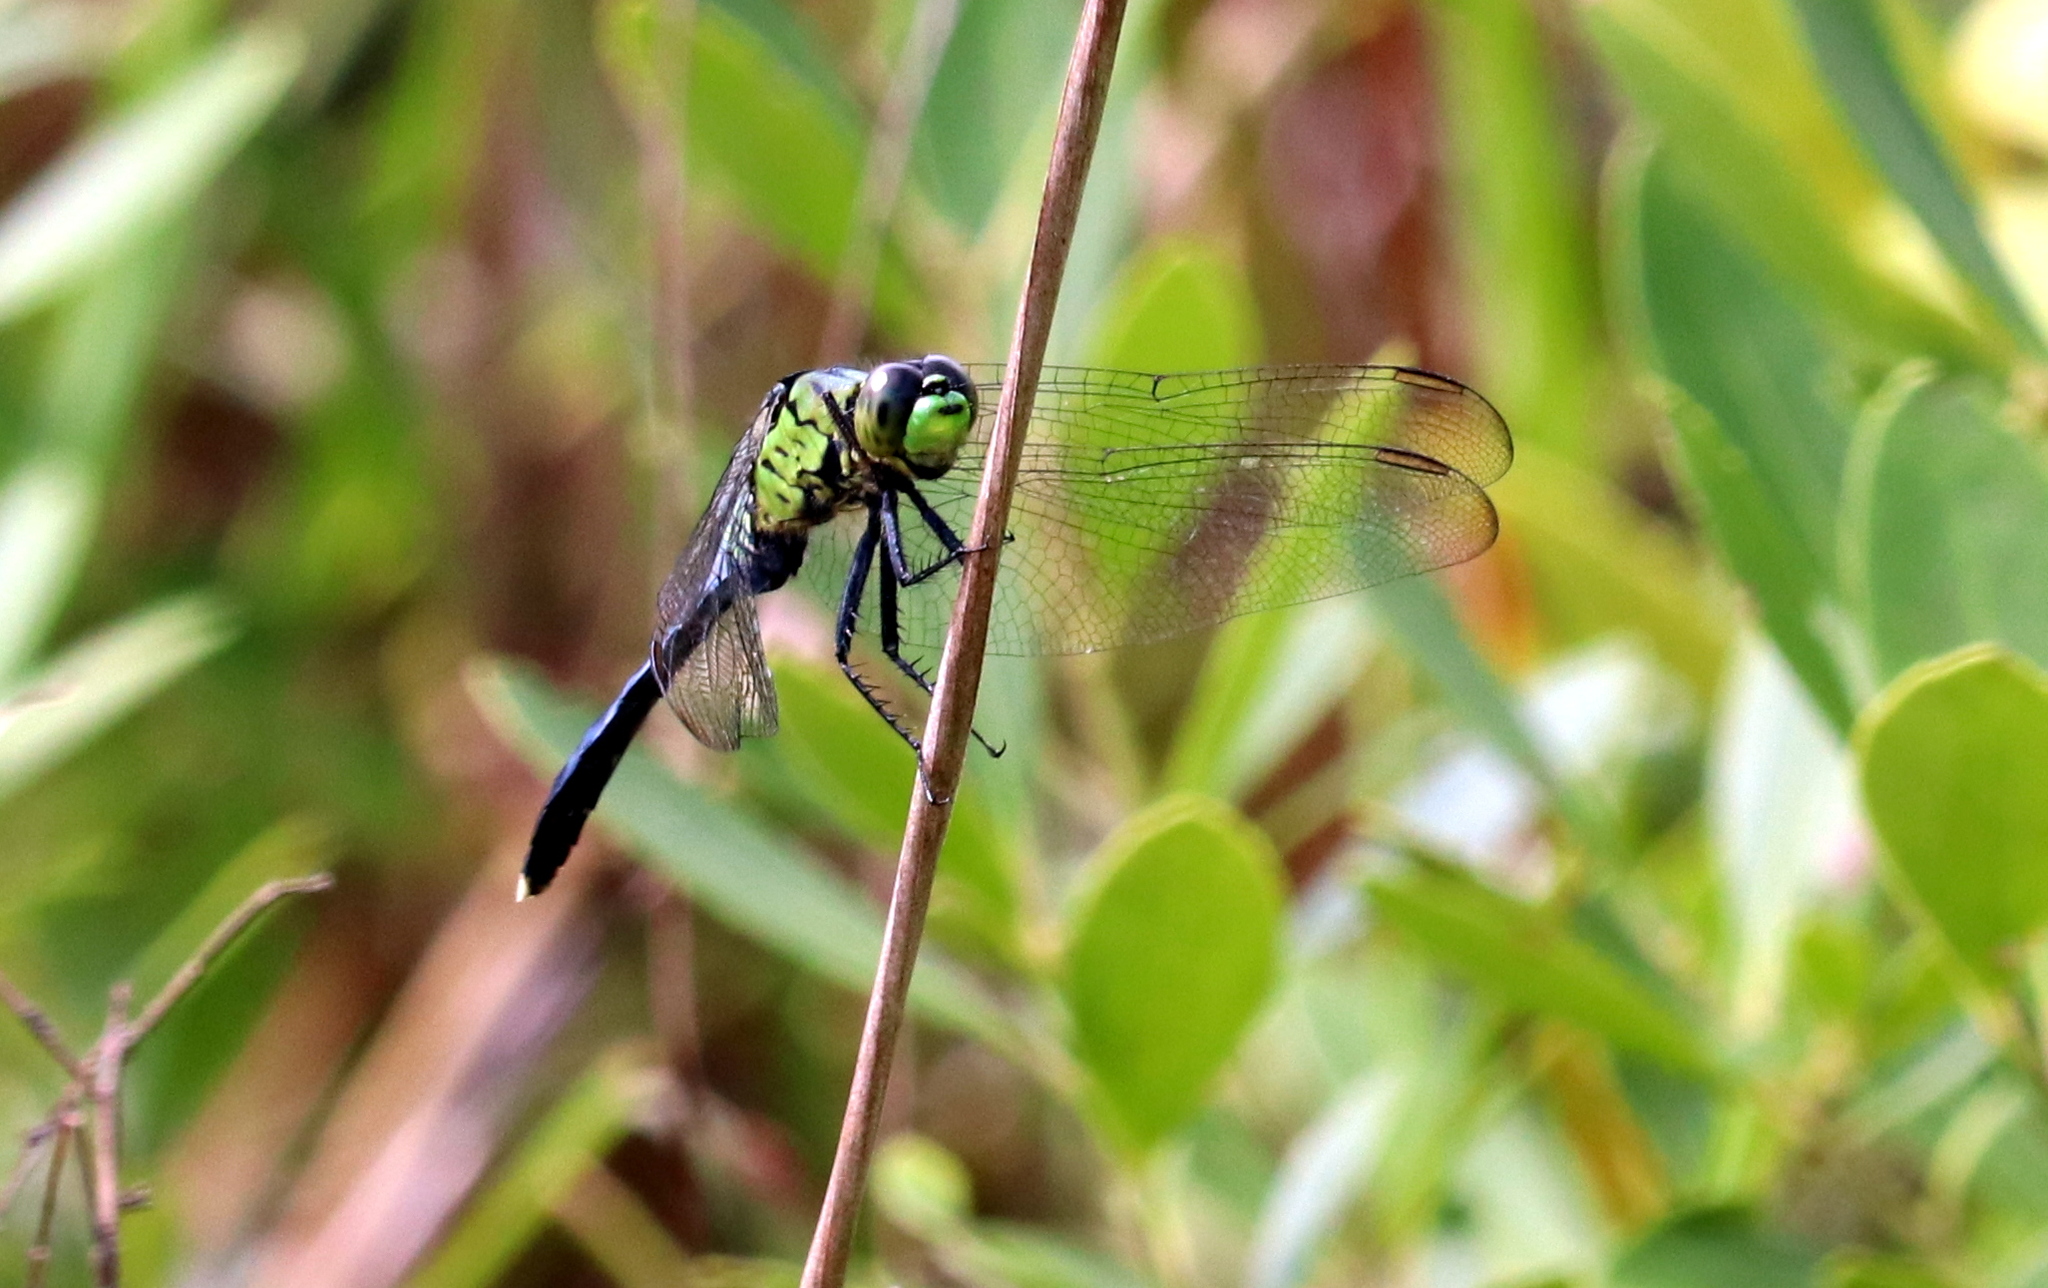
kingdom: Animalia
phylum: Arthropoda
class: Insecta
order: Odonata
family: Libellulidae
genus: Erythemis
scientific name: Erythemis simplicicollis
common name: Eastern pondhawk
